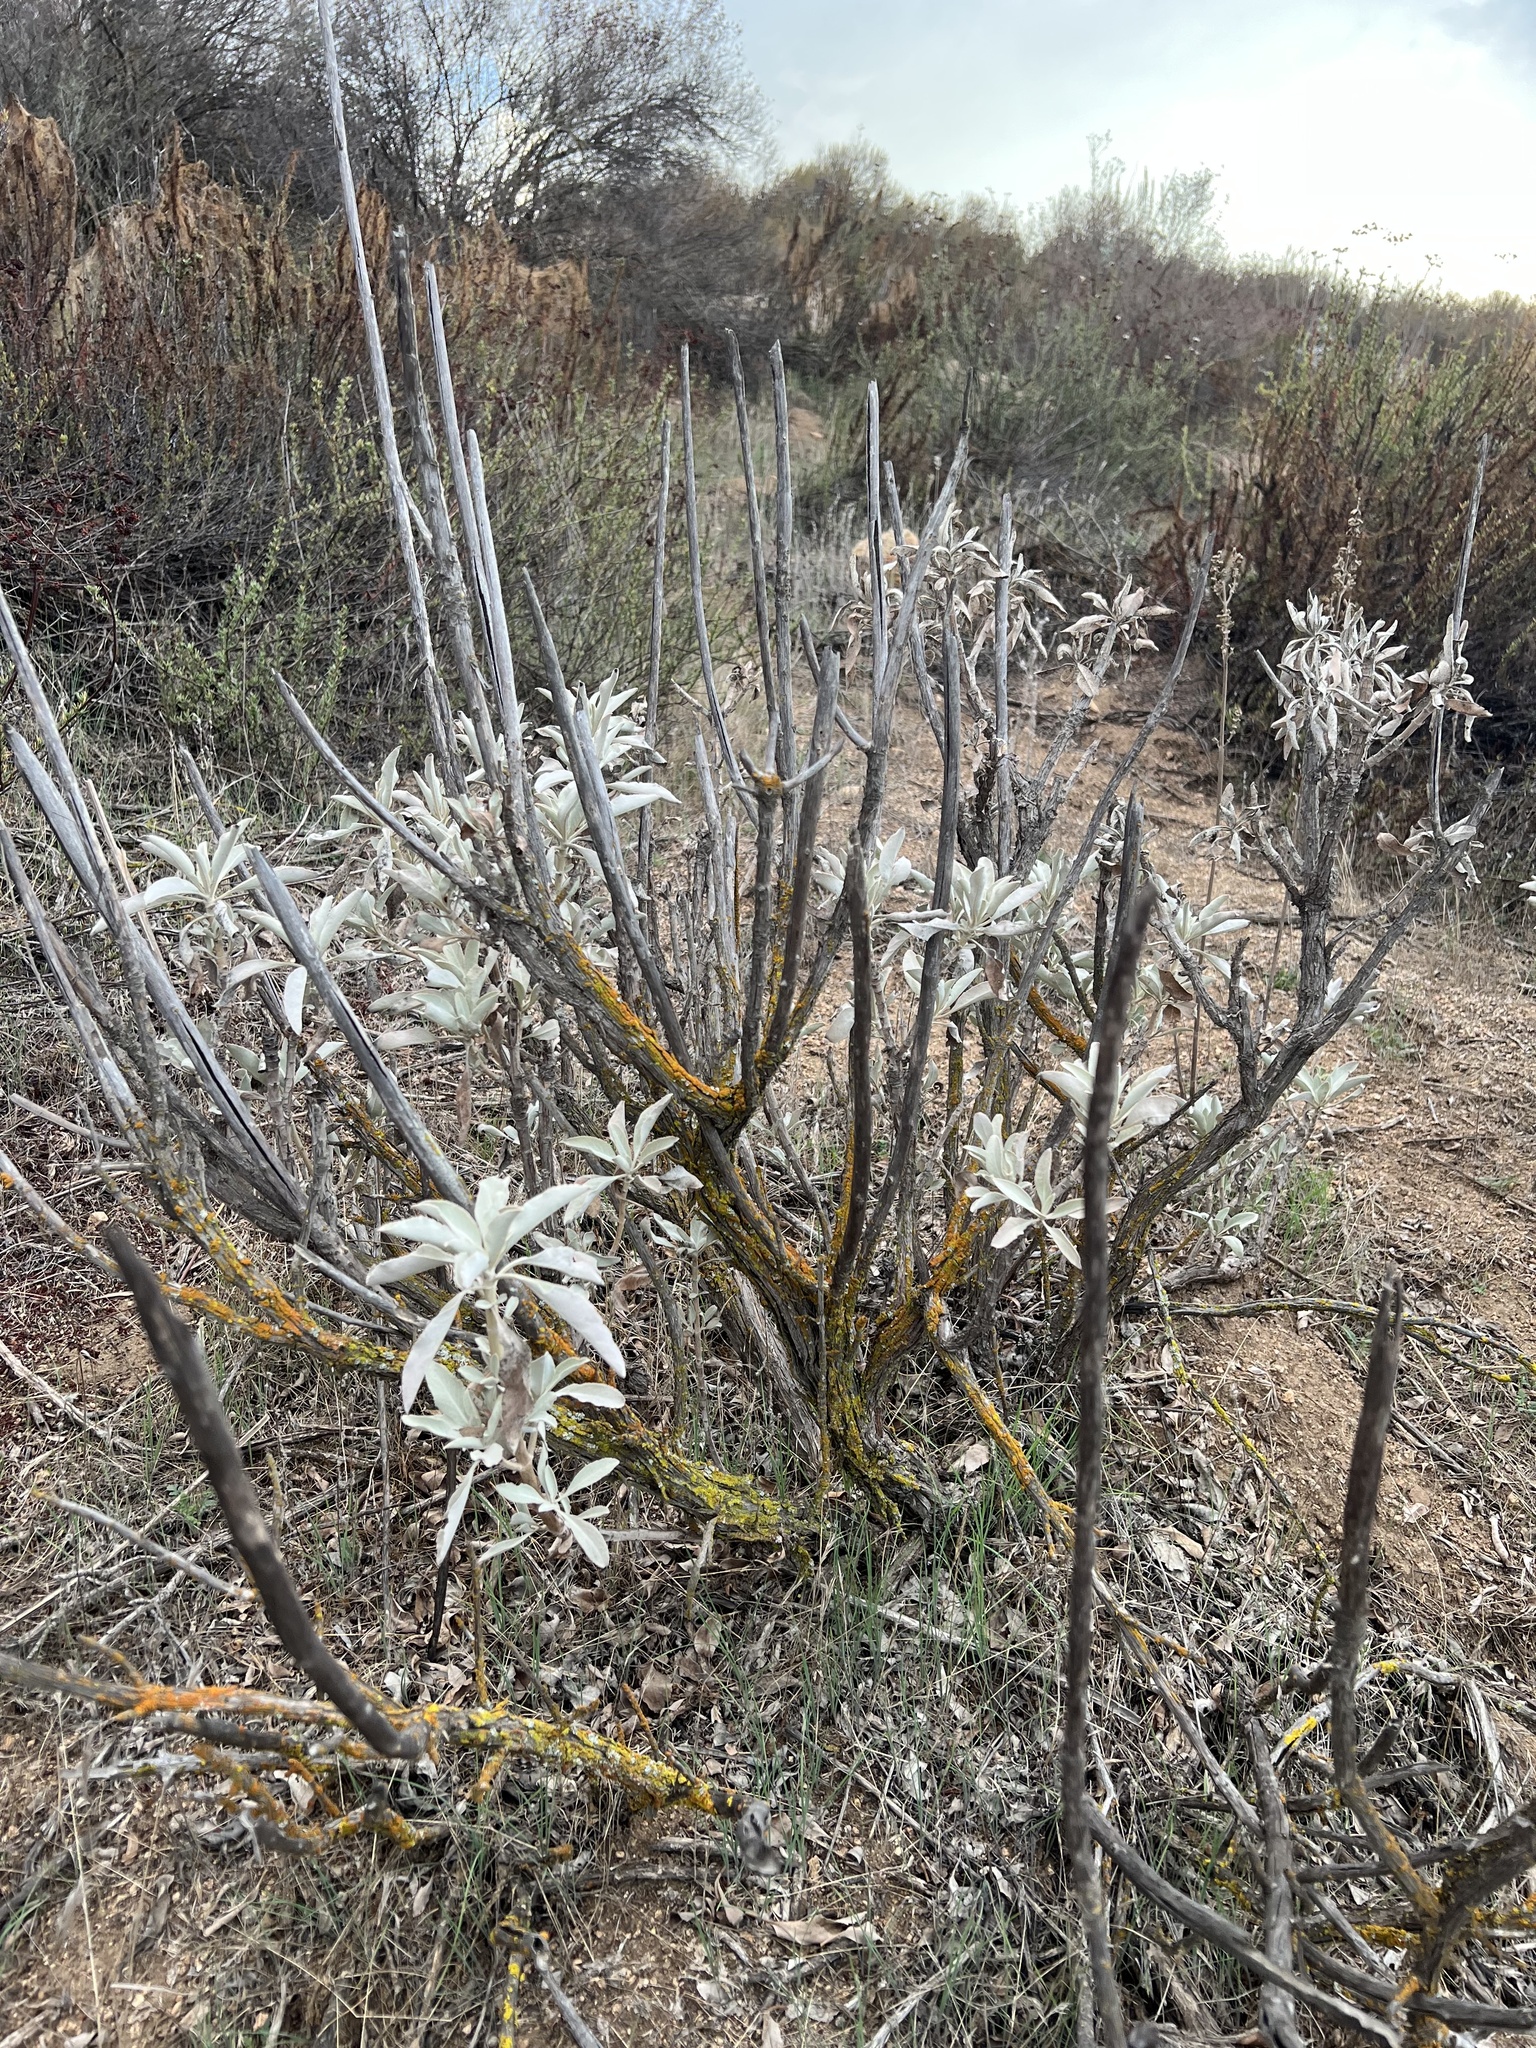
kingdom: Plantae
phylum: Tracheophyta
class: Magnoliopsida
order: Lamiales
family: Lamiaceae
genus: Salvia
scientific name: Salvia apiana
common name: White sage
